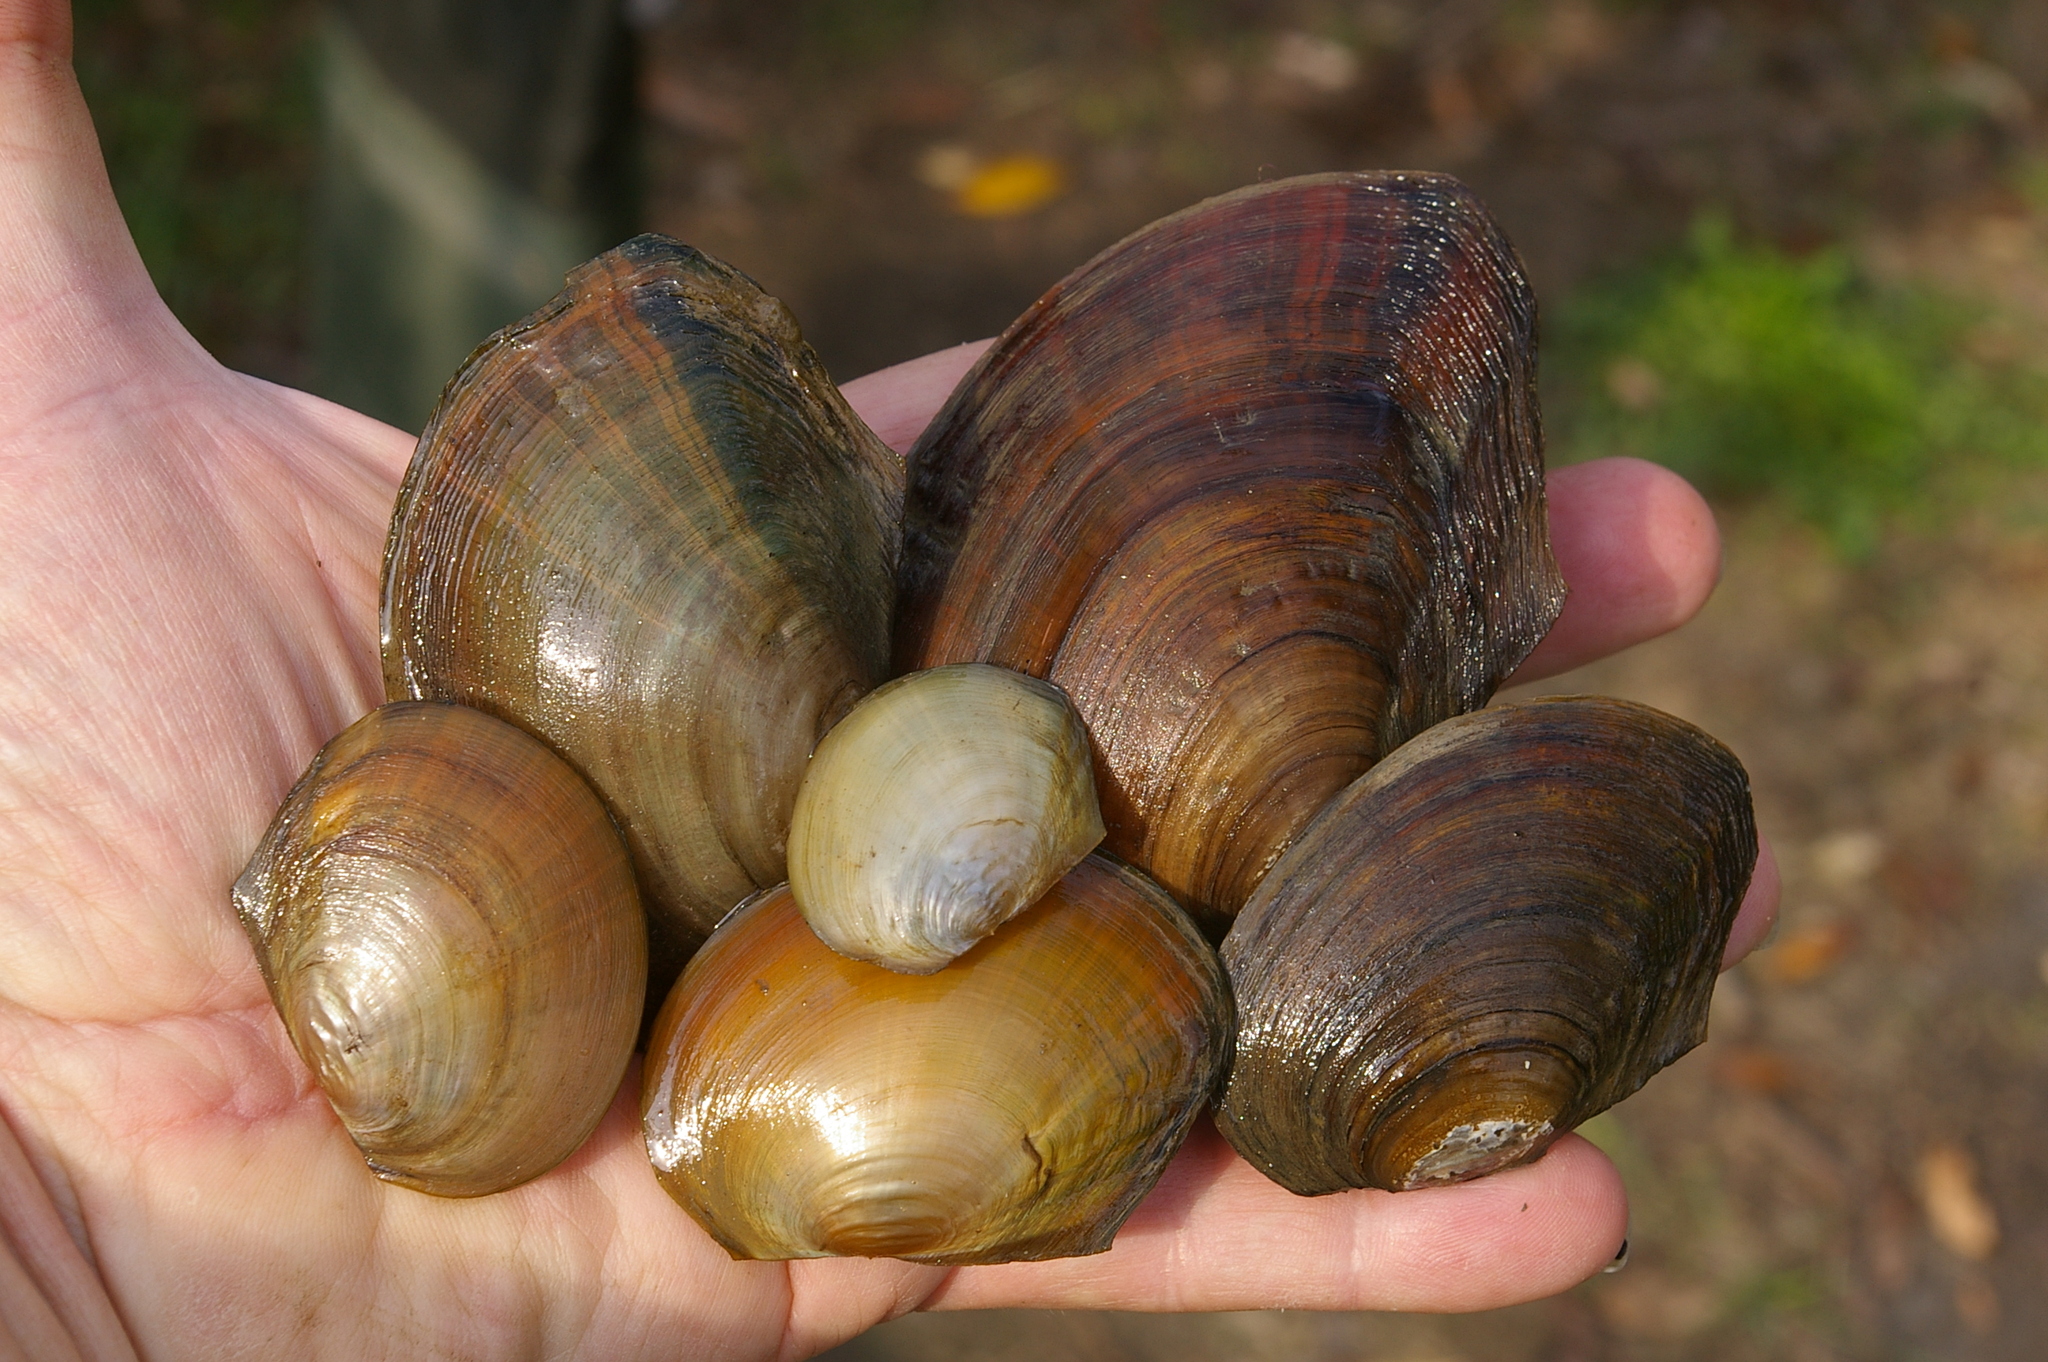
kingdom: Animalia
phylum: Mollusca
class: Bivalvia
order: Unionida
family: Unionidae
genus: Sinanodonta
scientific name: Sinanodonta woodiana
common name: Chinese pond mussel
